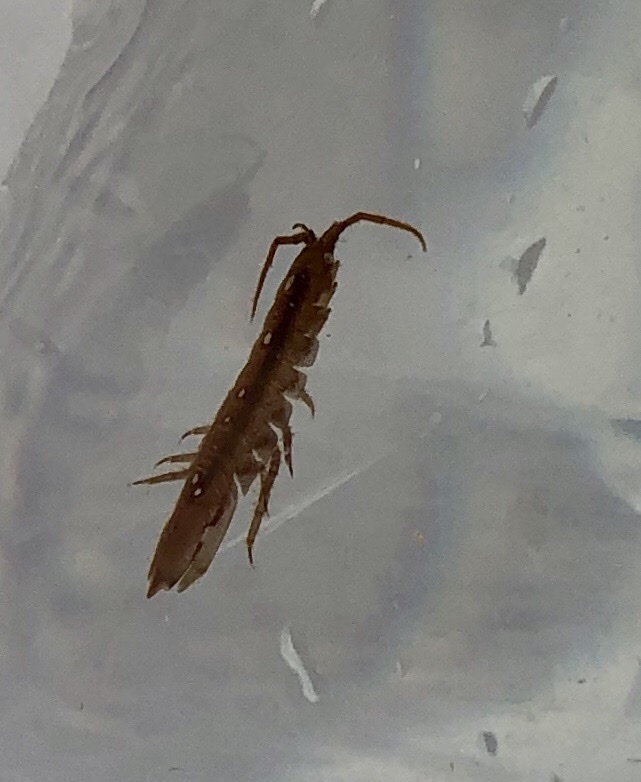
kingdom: Animalia
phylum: Arthropoda
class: Malacostraca
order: Isopoda
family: Idoteidae
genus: Idotea
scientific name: Idotea balthica
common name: Baltic isopod
